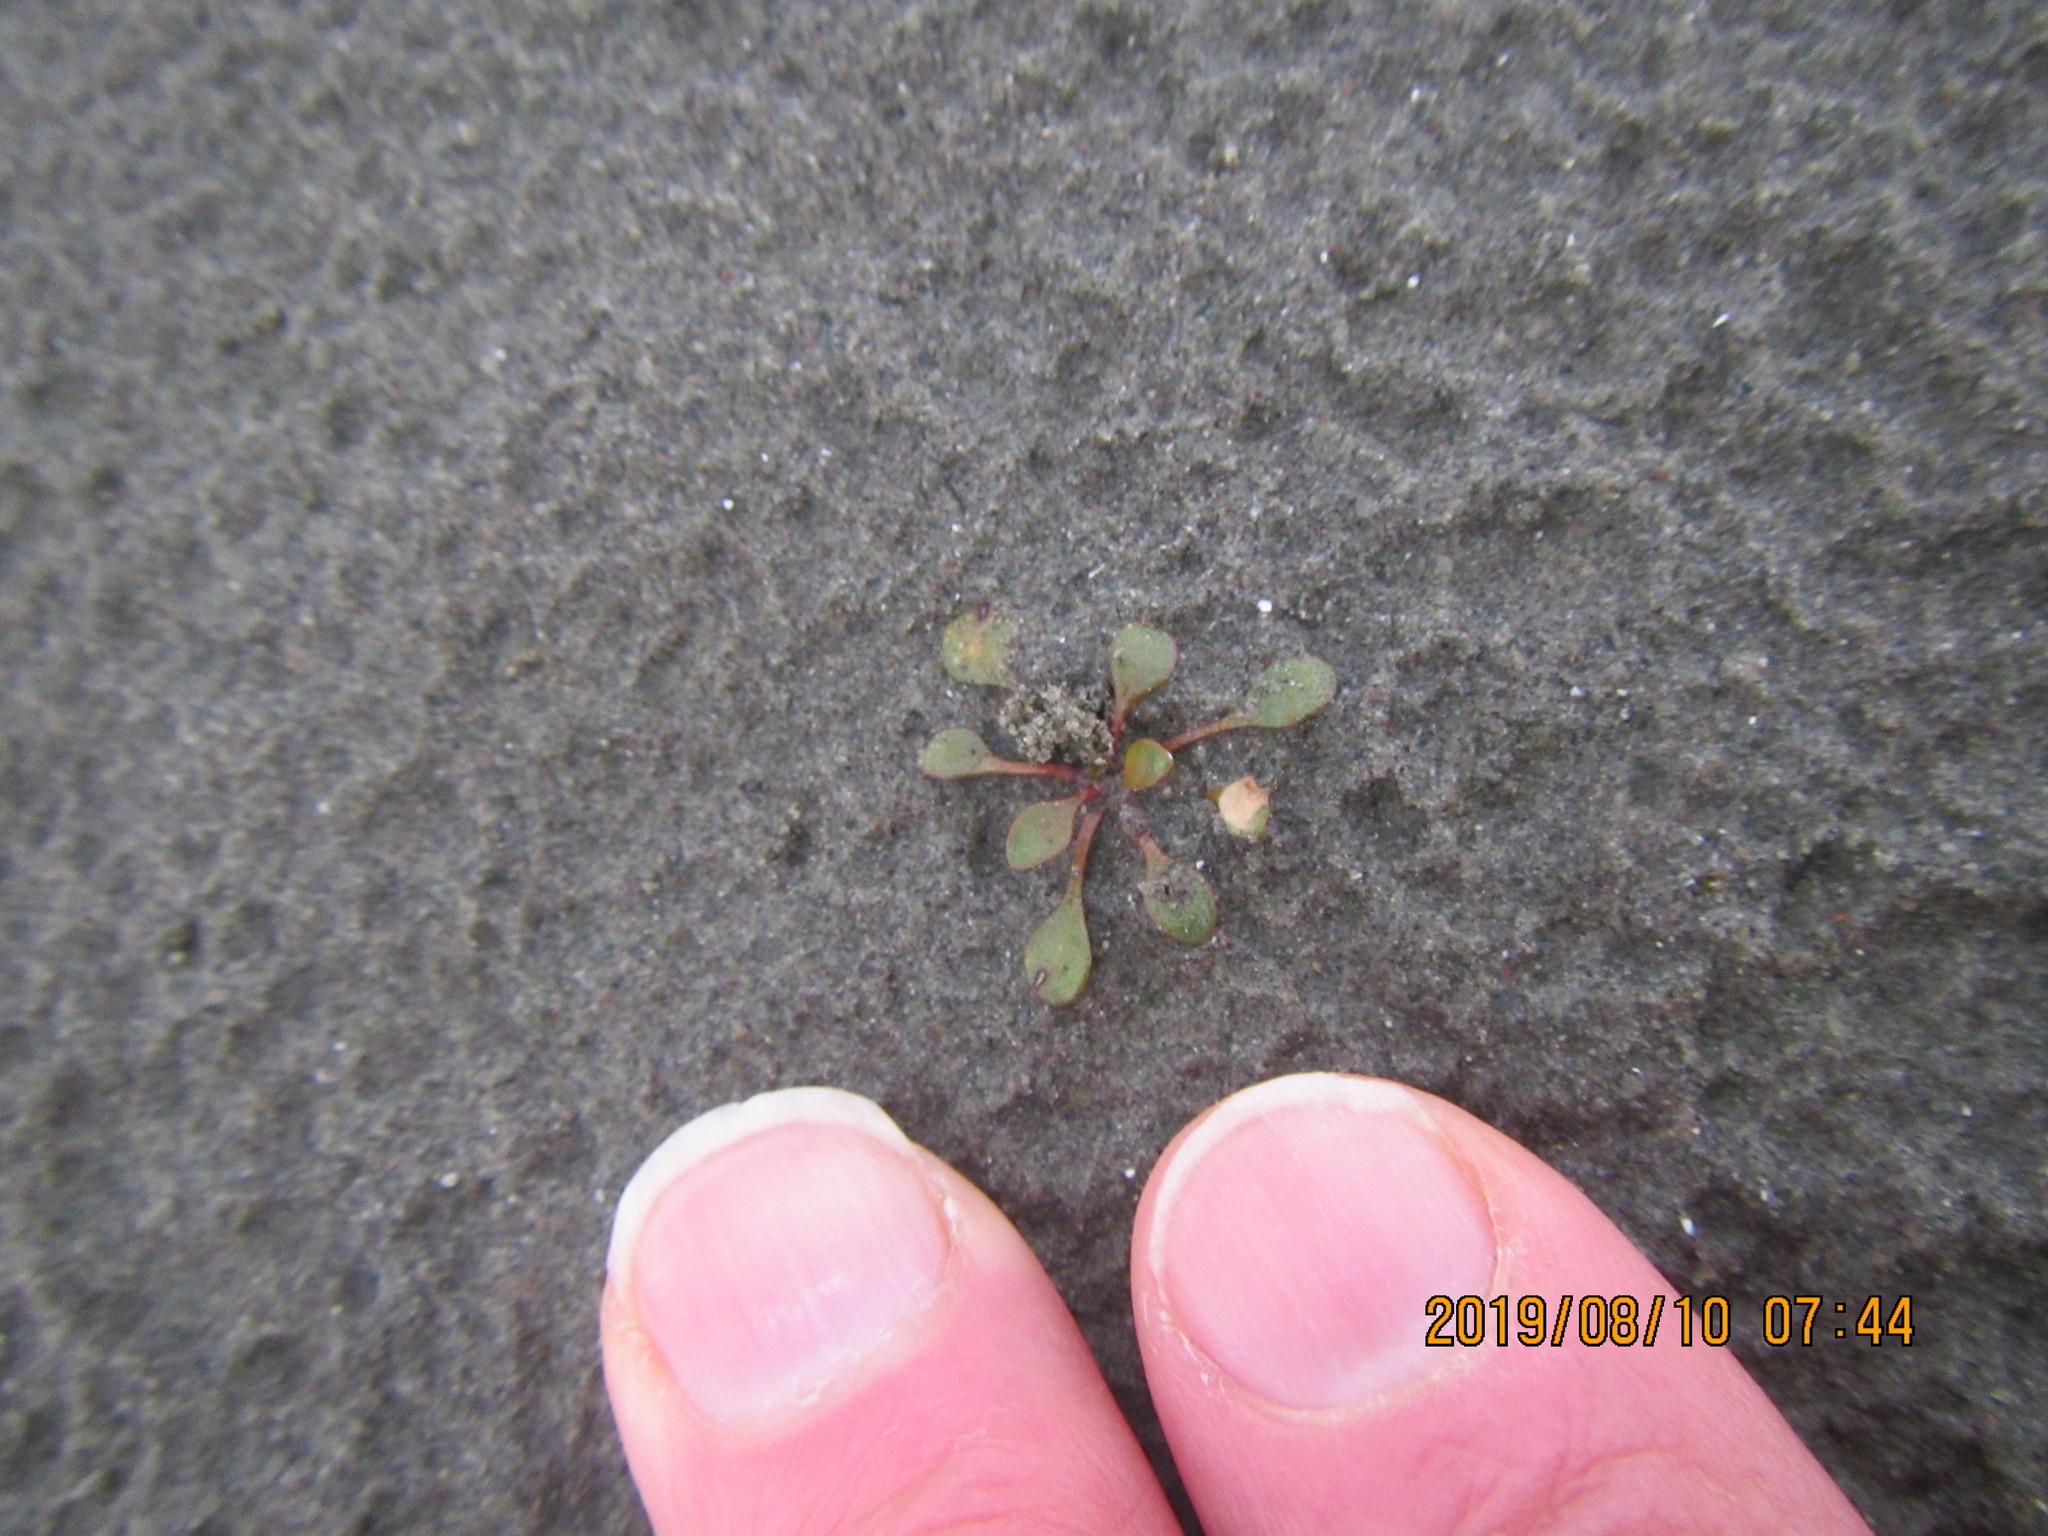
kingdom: Plantae
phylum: Tracheophyta
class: Magnoliopsida
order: Ericales
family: Primulaceae
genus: Samolus
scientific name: Samolus repens
